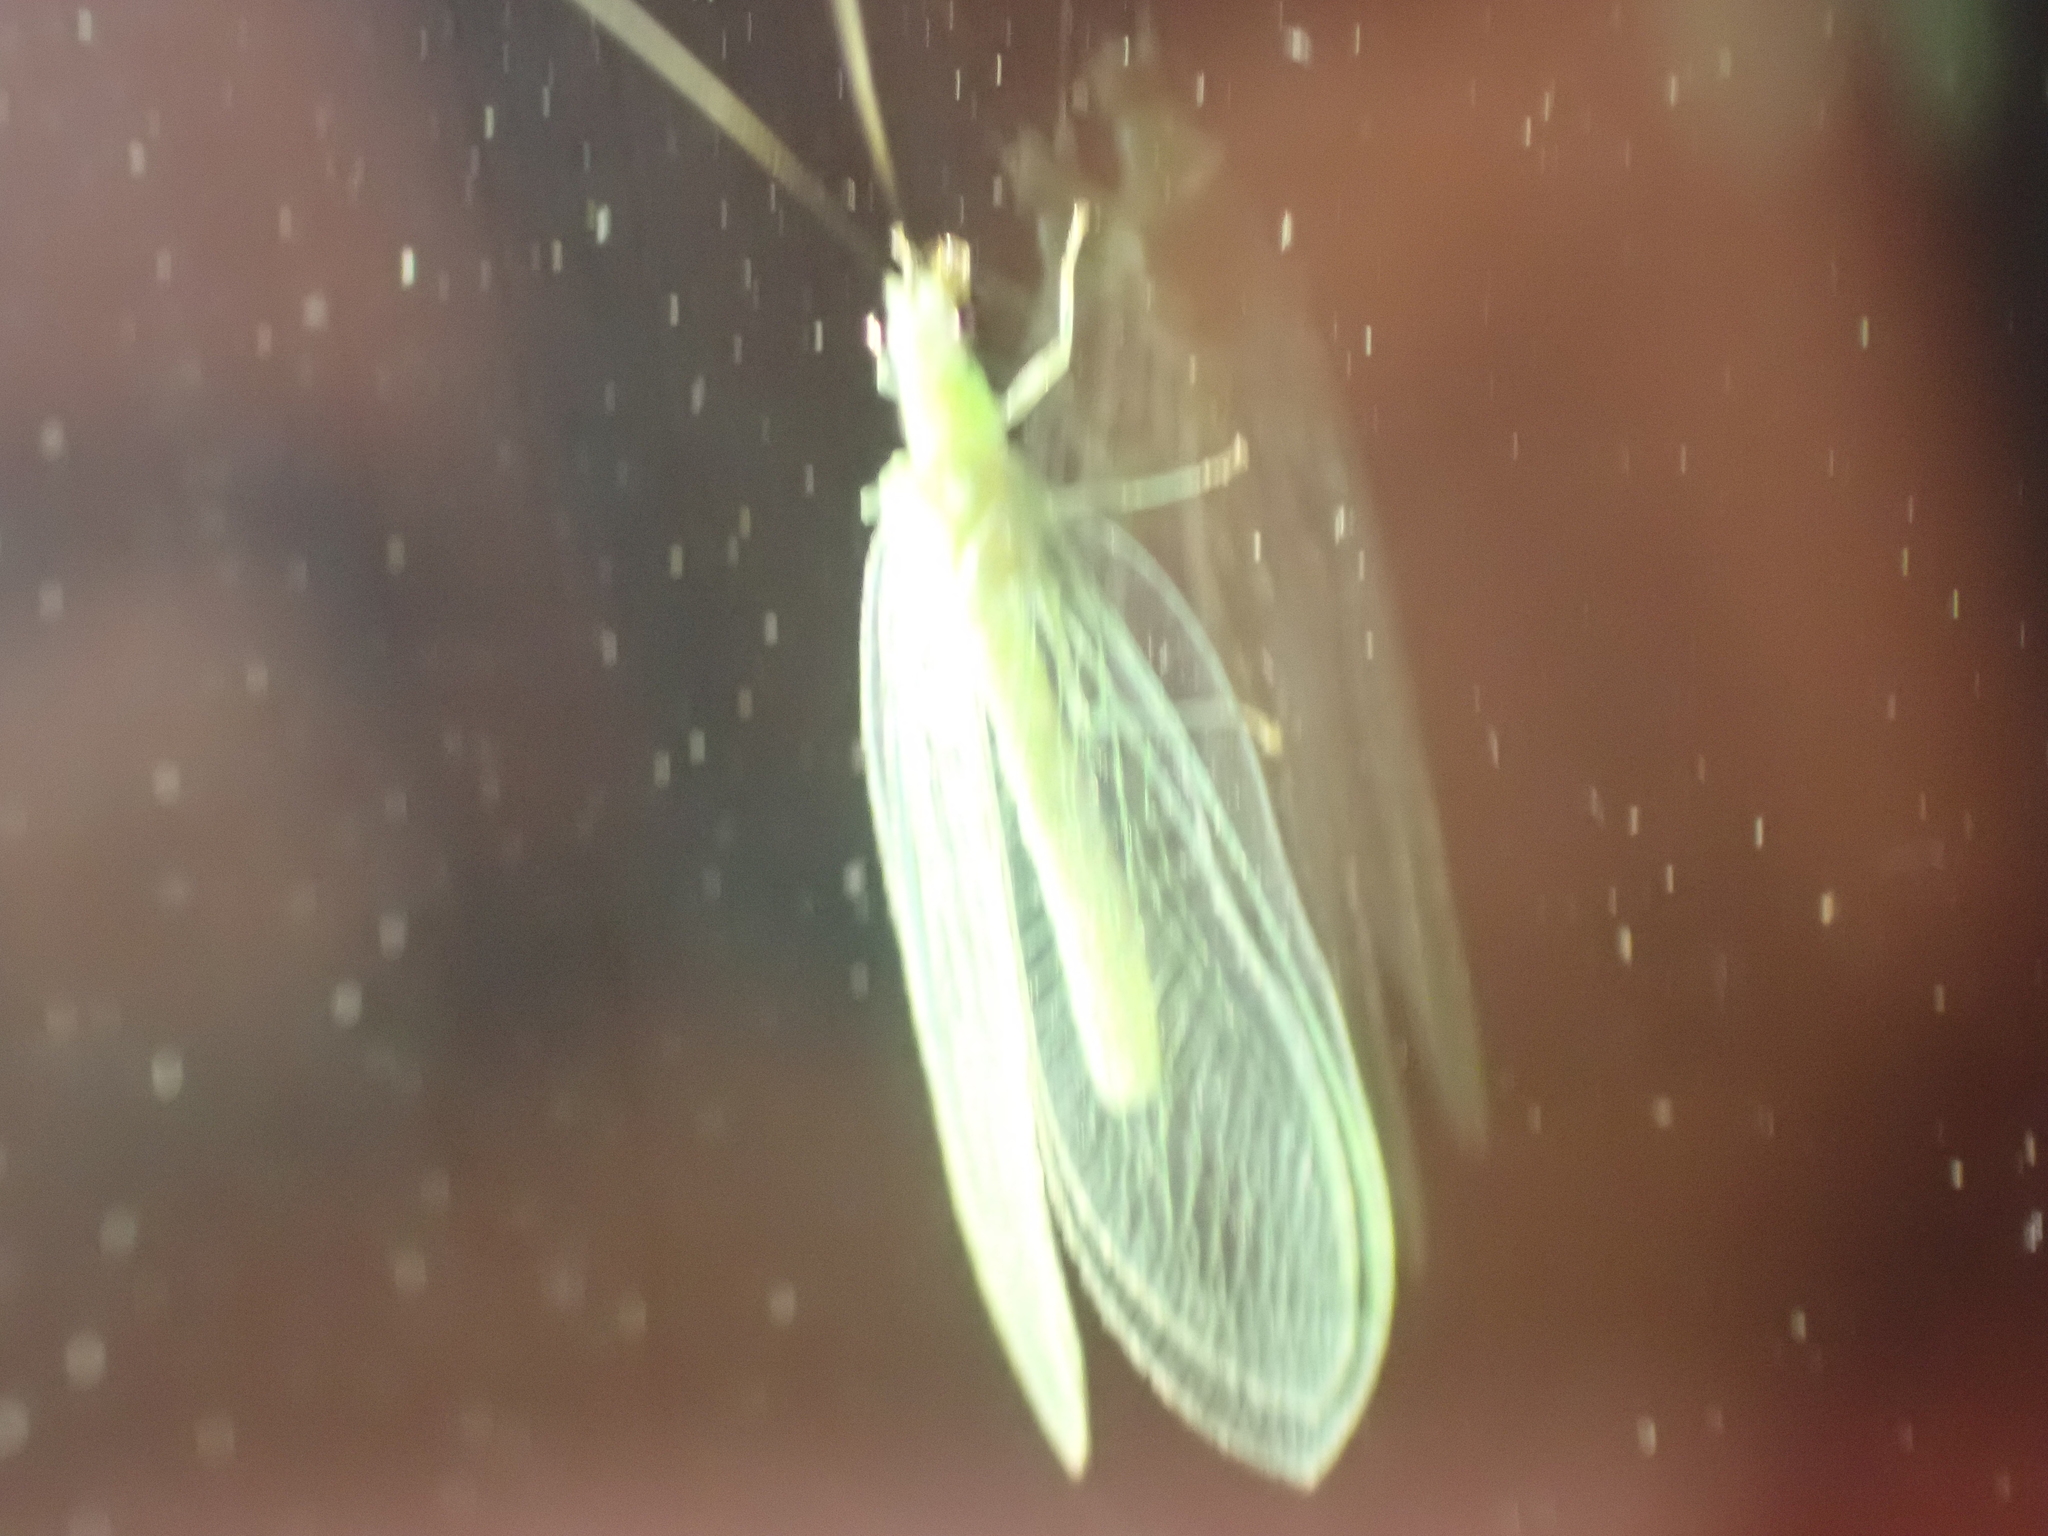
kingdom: Animalia
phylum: Arthropoda
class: Insecta
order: Neuroptera
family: Chrysopidae
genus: Chrysopa
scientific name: Chrysopa nigricornis
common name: Black-horned green lacewing
